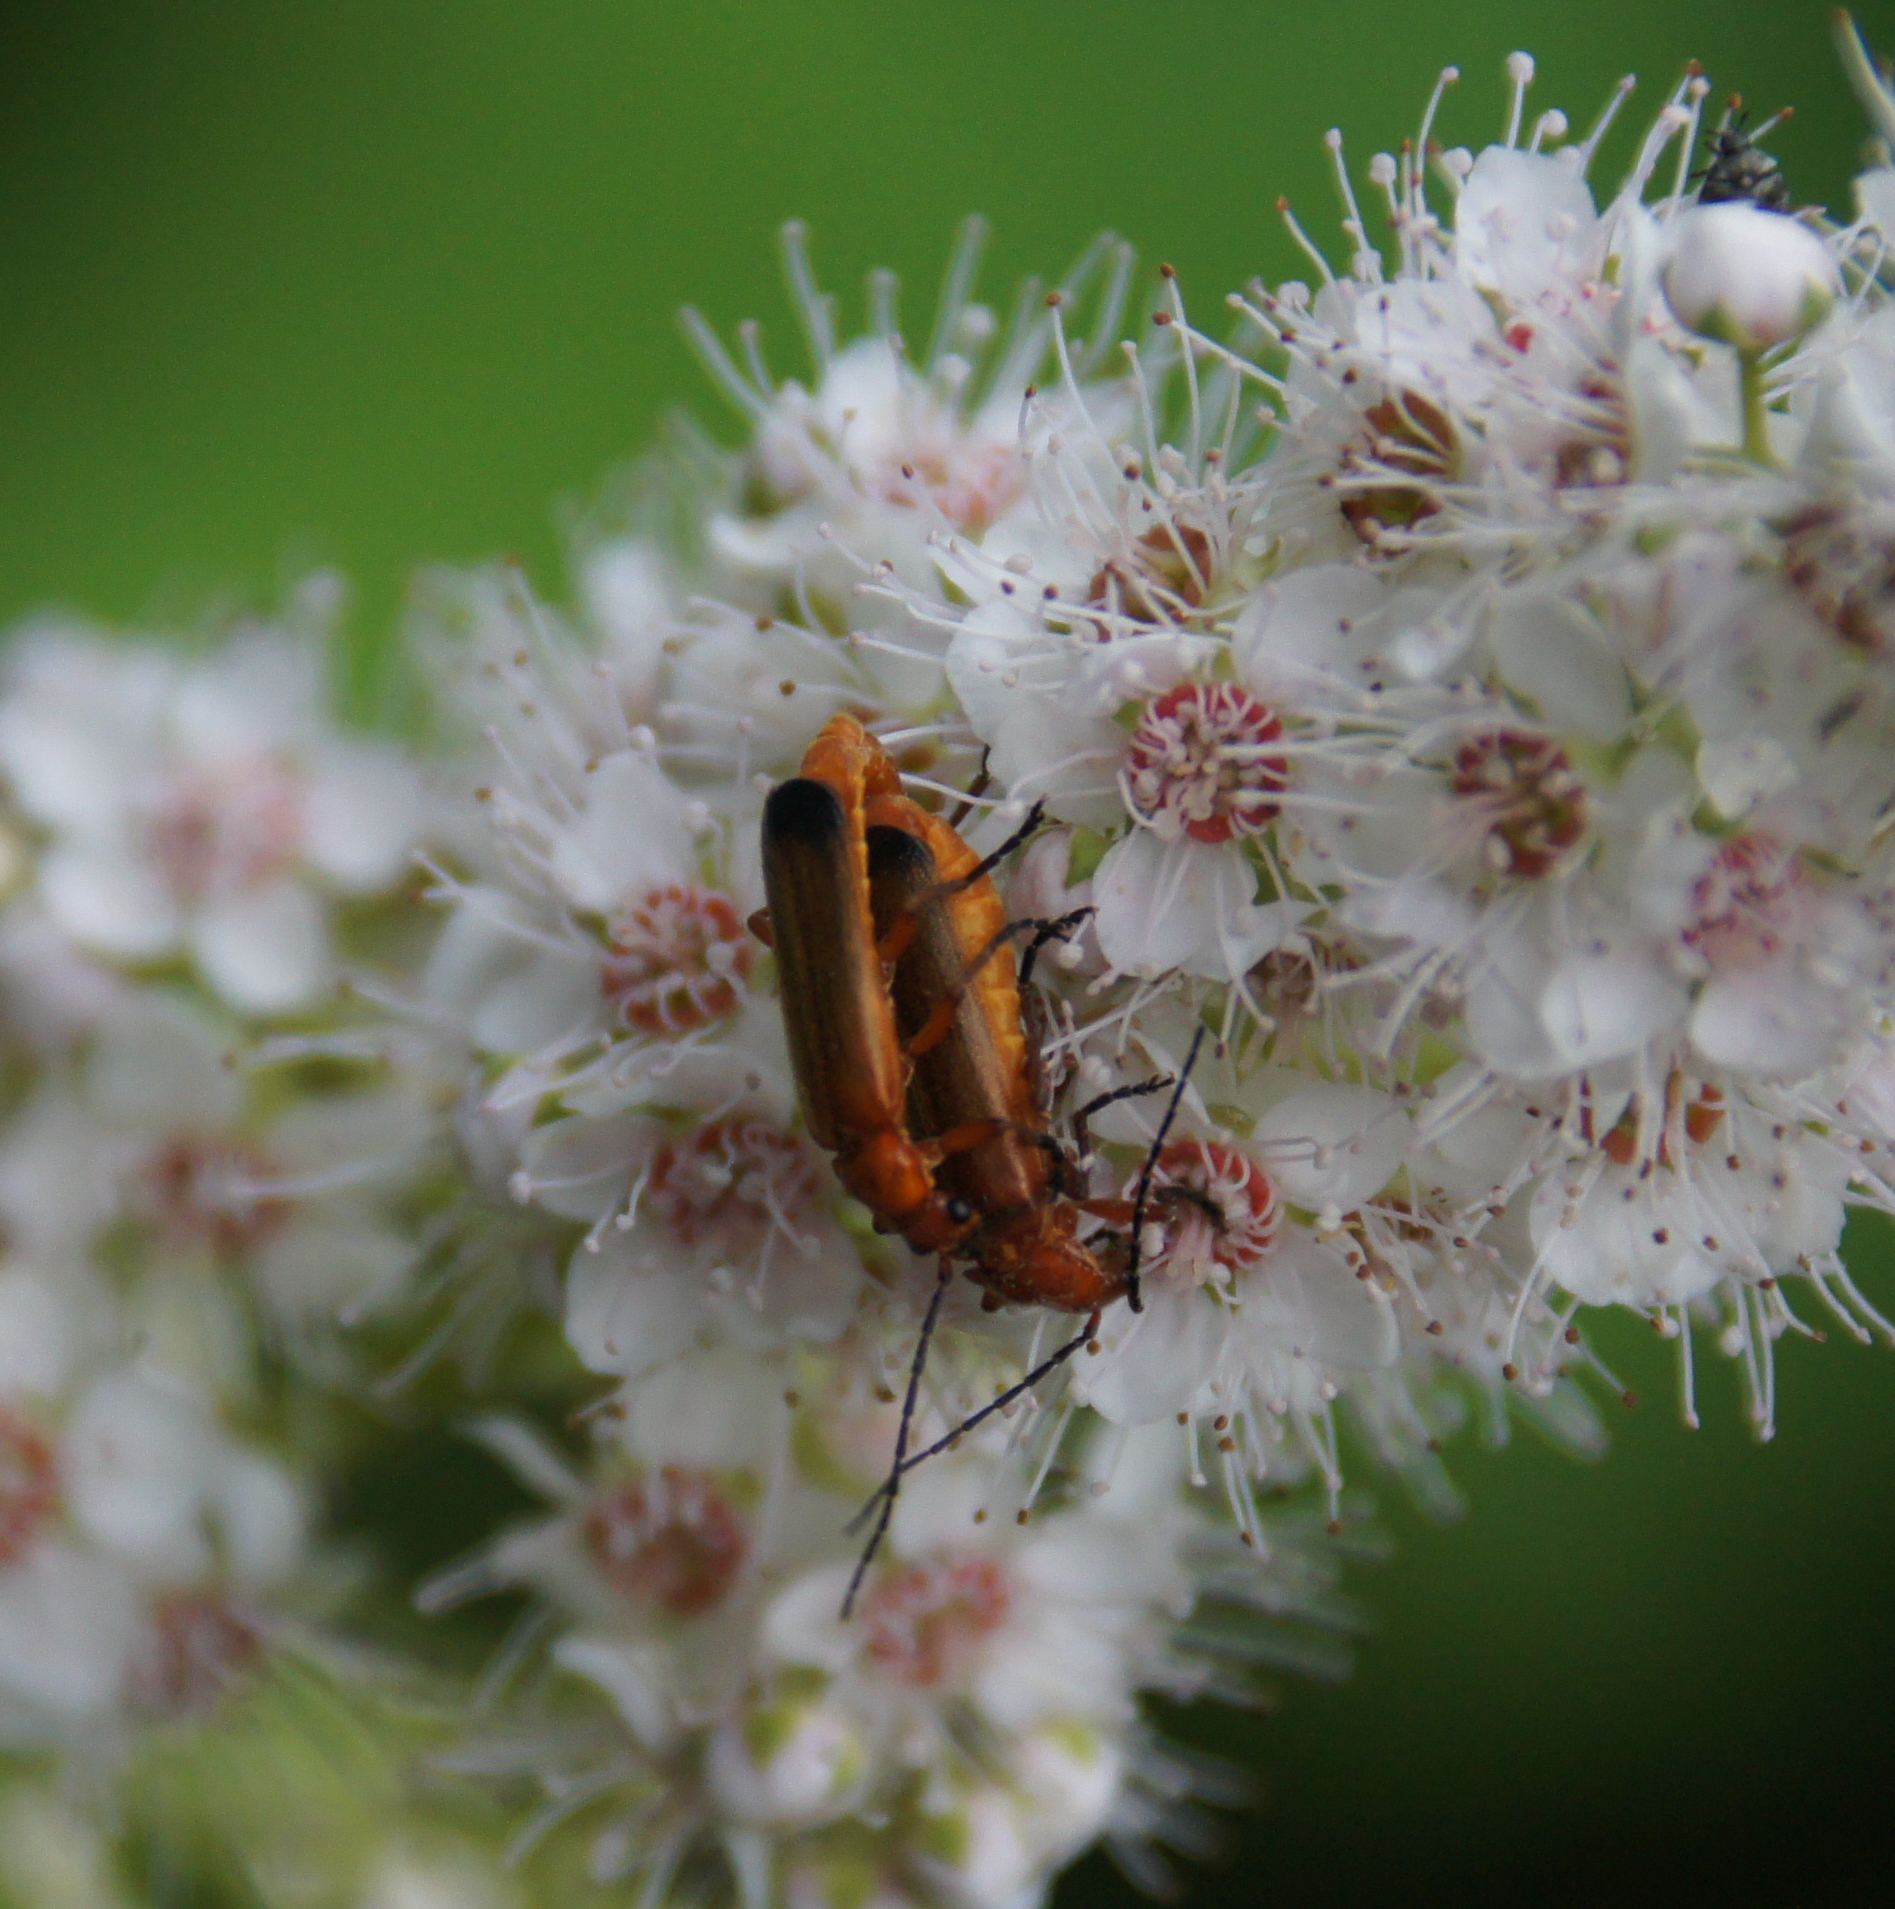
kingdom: Animalia
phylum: Arthropoda
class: Insecta
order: Coleoptera
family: Cantharidae
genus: Rhagonycha
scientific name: Rhagonycha fulva
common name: Common red soldier beetle
